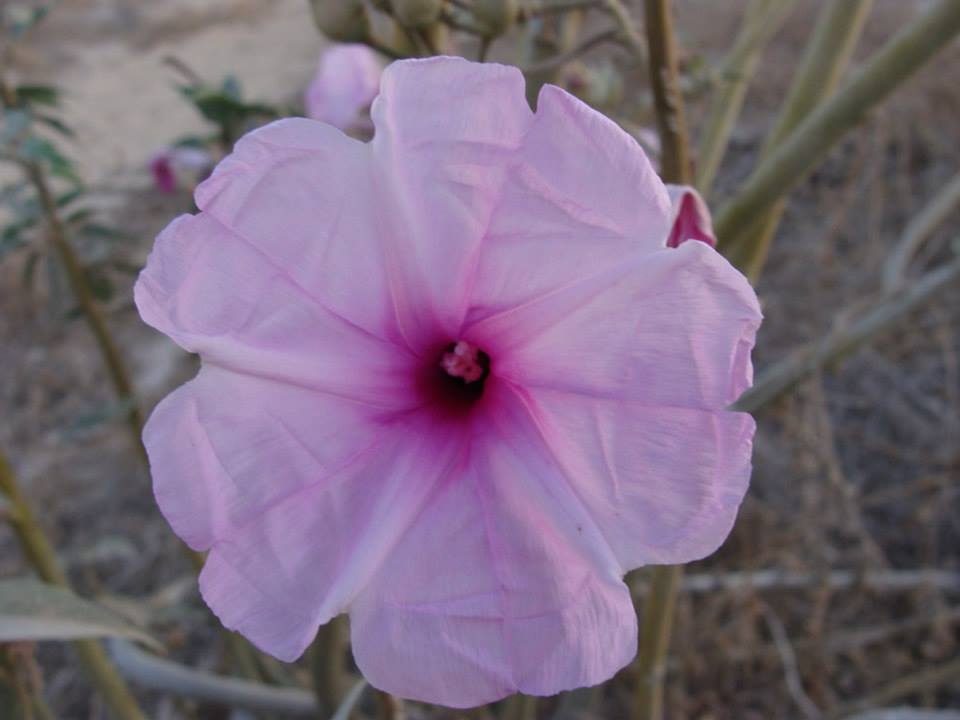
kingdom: Plantae
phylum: Tracheophyta
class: Magnoliopsida
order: Solanales
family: Convolvulaceae
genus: Ipomoea
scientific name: Ipomoea carnea
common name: Morning-glory
